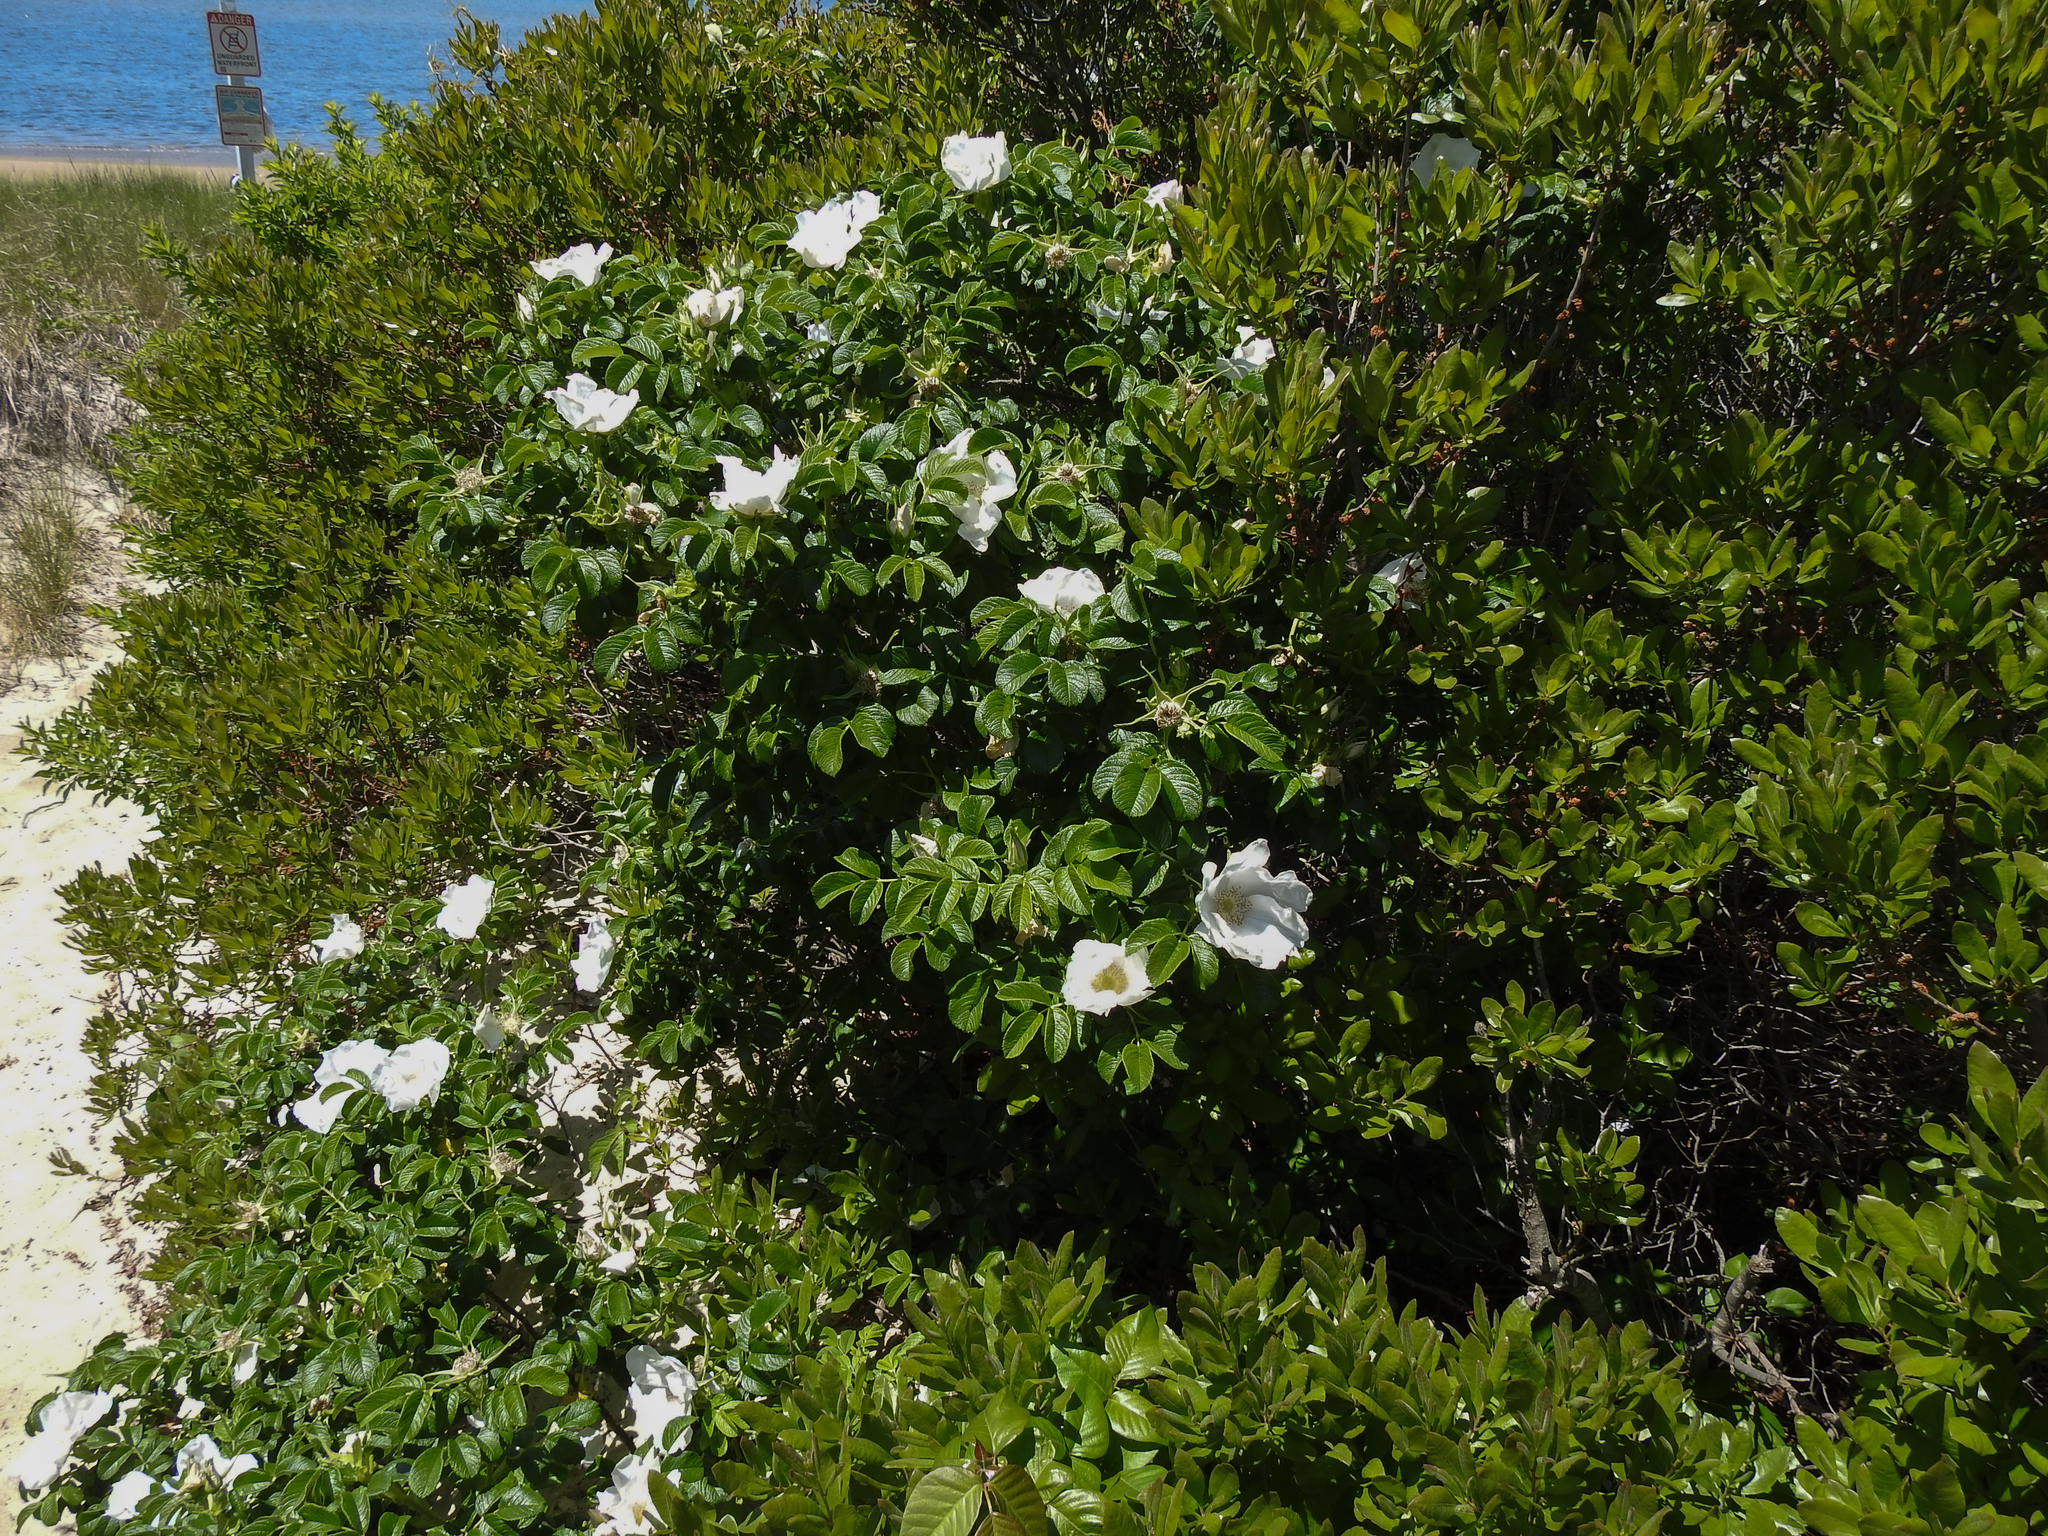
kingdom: Plantae
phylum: Tracheophyta
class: Magnoliopsida
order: Rosales
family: Rosaceae
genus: Rosa
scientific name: Rosa rugosa
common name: Japanese rose
